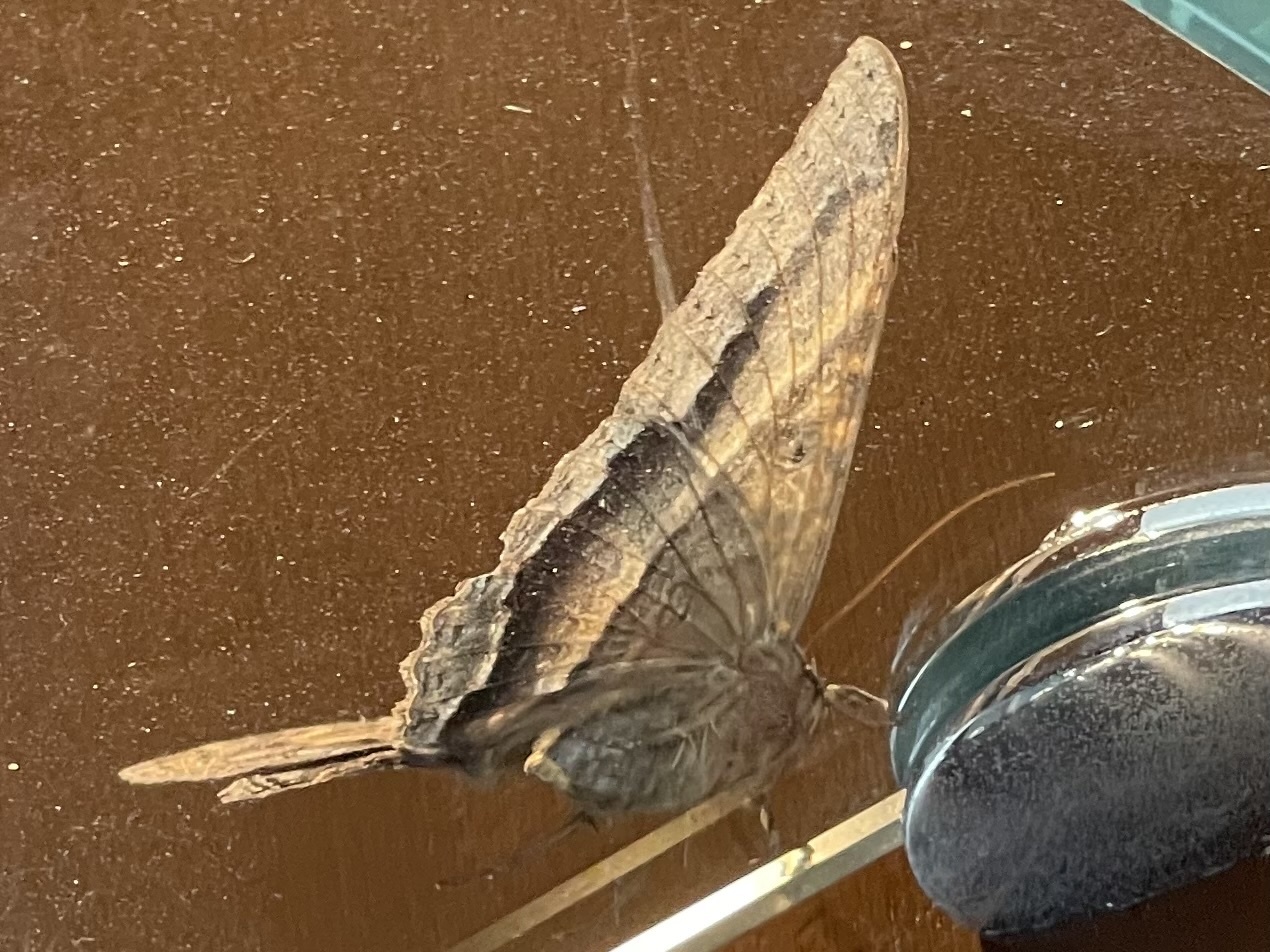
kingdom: Animalia
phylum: Arthropoda
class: Insecta
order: Lepidoptera
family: Erebidae
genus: Ascalapha
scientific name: Ascalapha odorata
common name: Black witch
